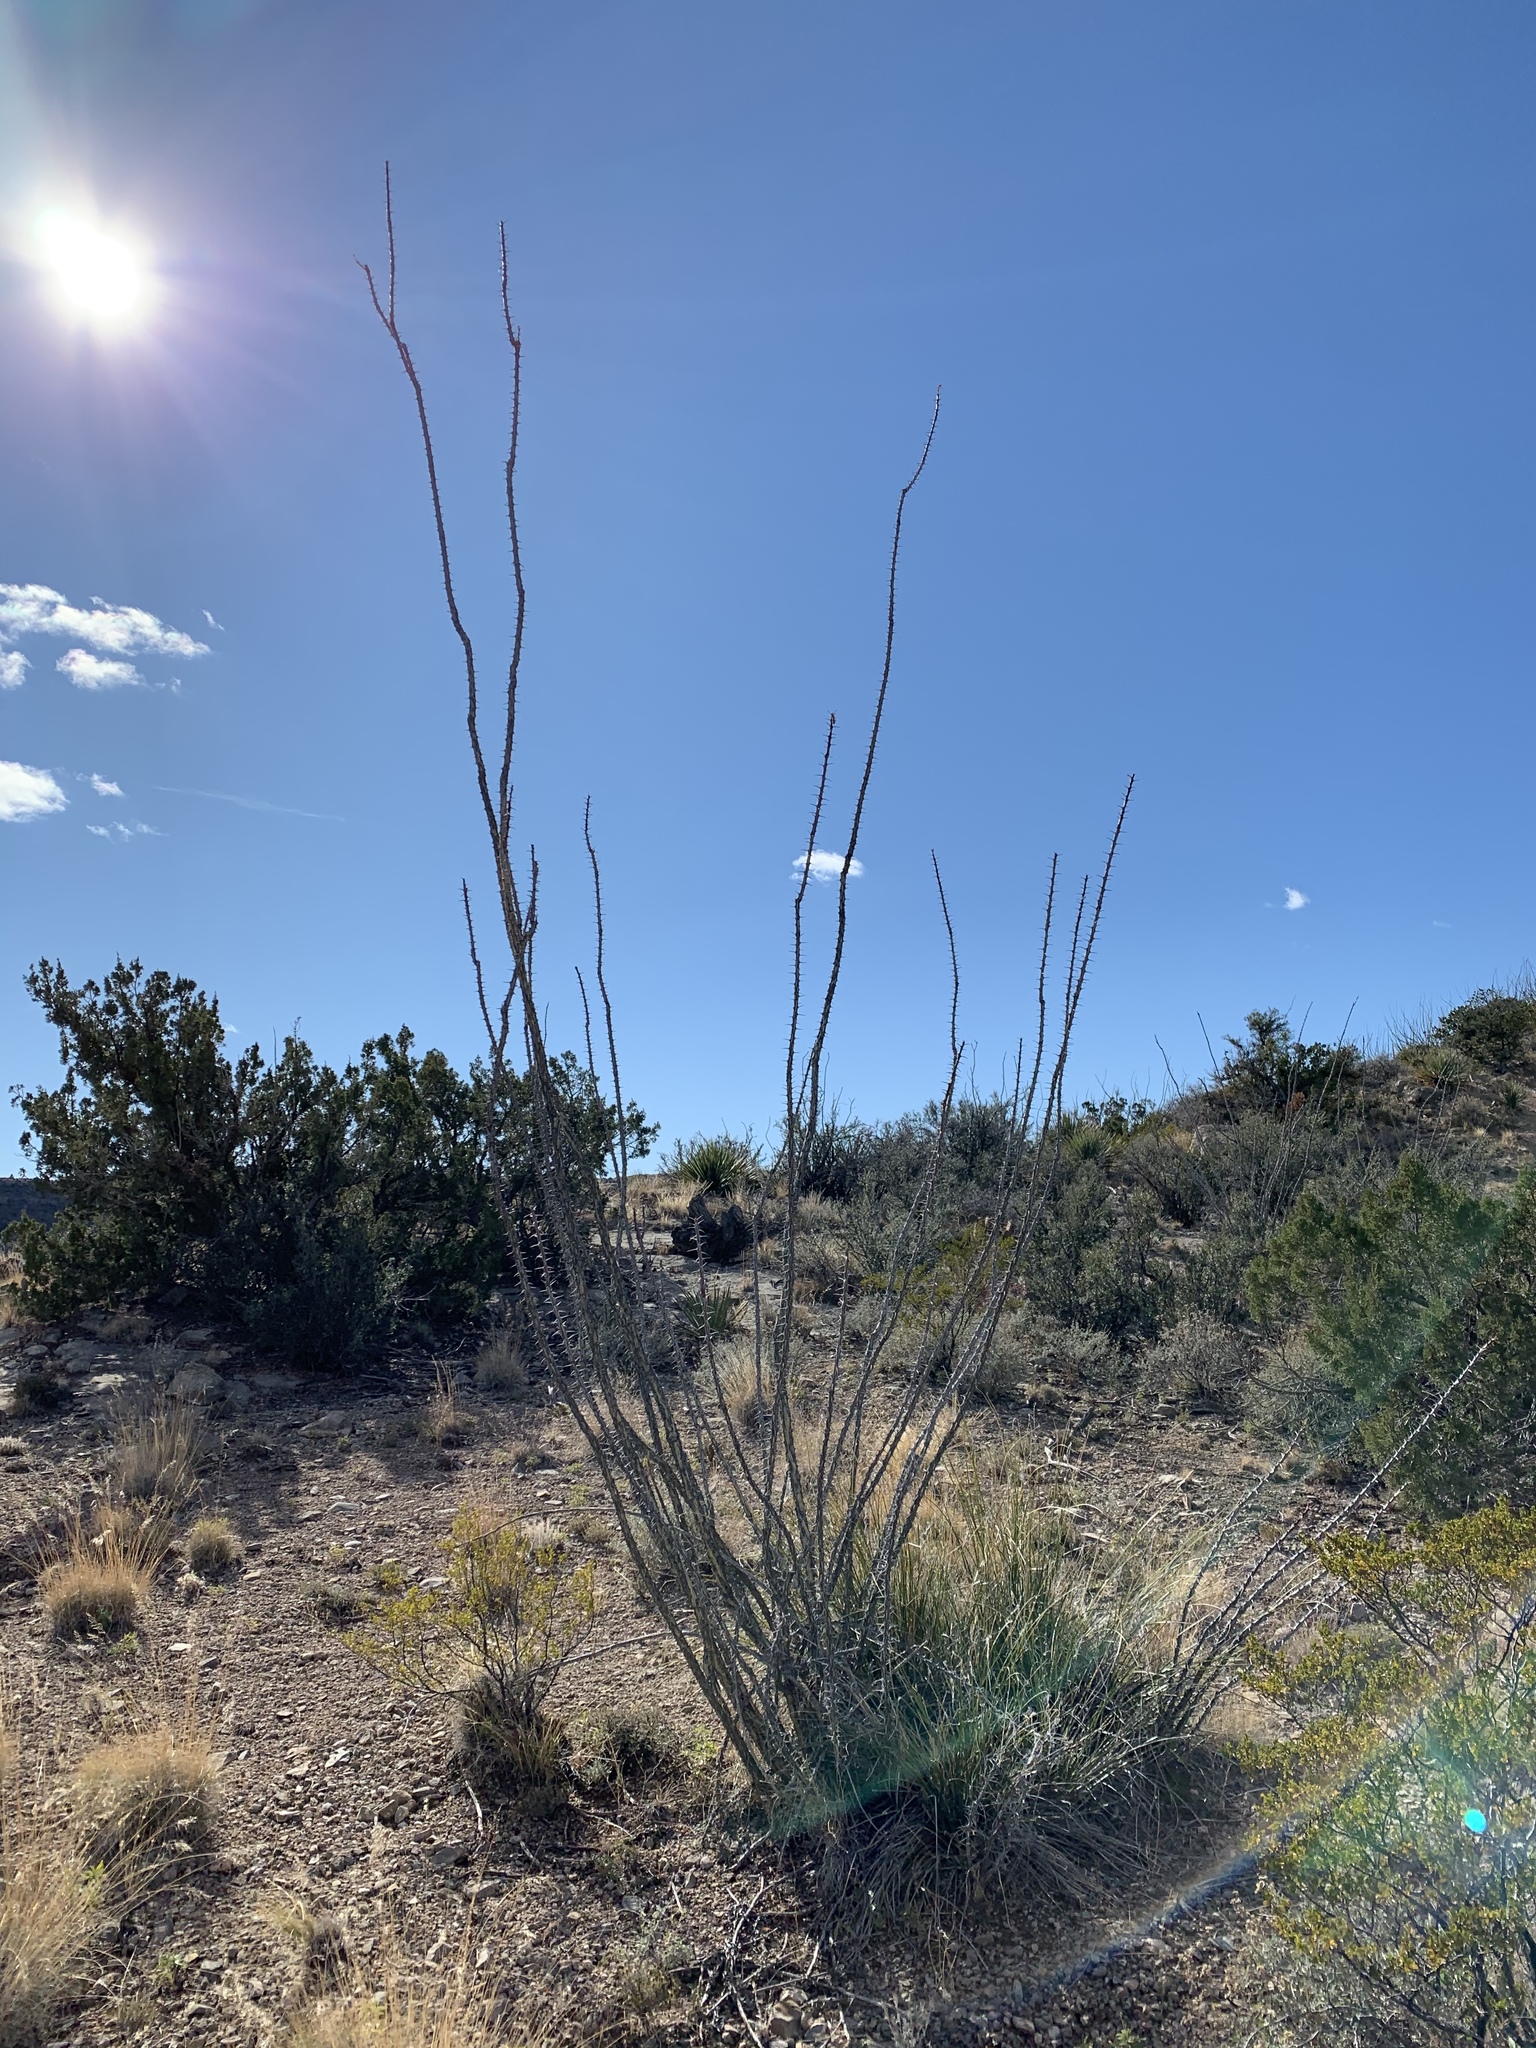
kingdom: Plantae
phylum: Tracheophyta
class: Magnoliopsida
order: Ericales
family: Fouquieriaceae
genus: Fouquieria
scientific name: Fouquieria splendens
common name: Vine-cactus
